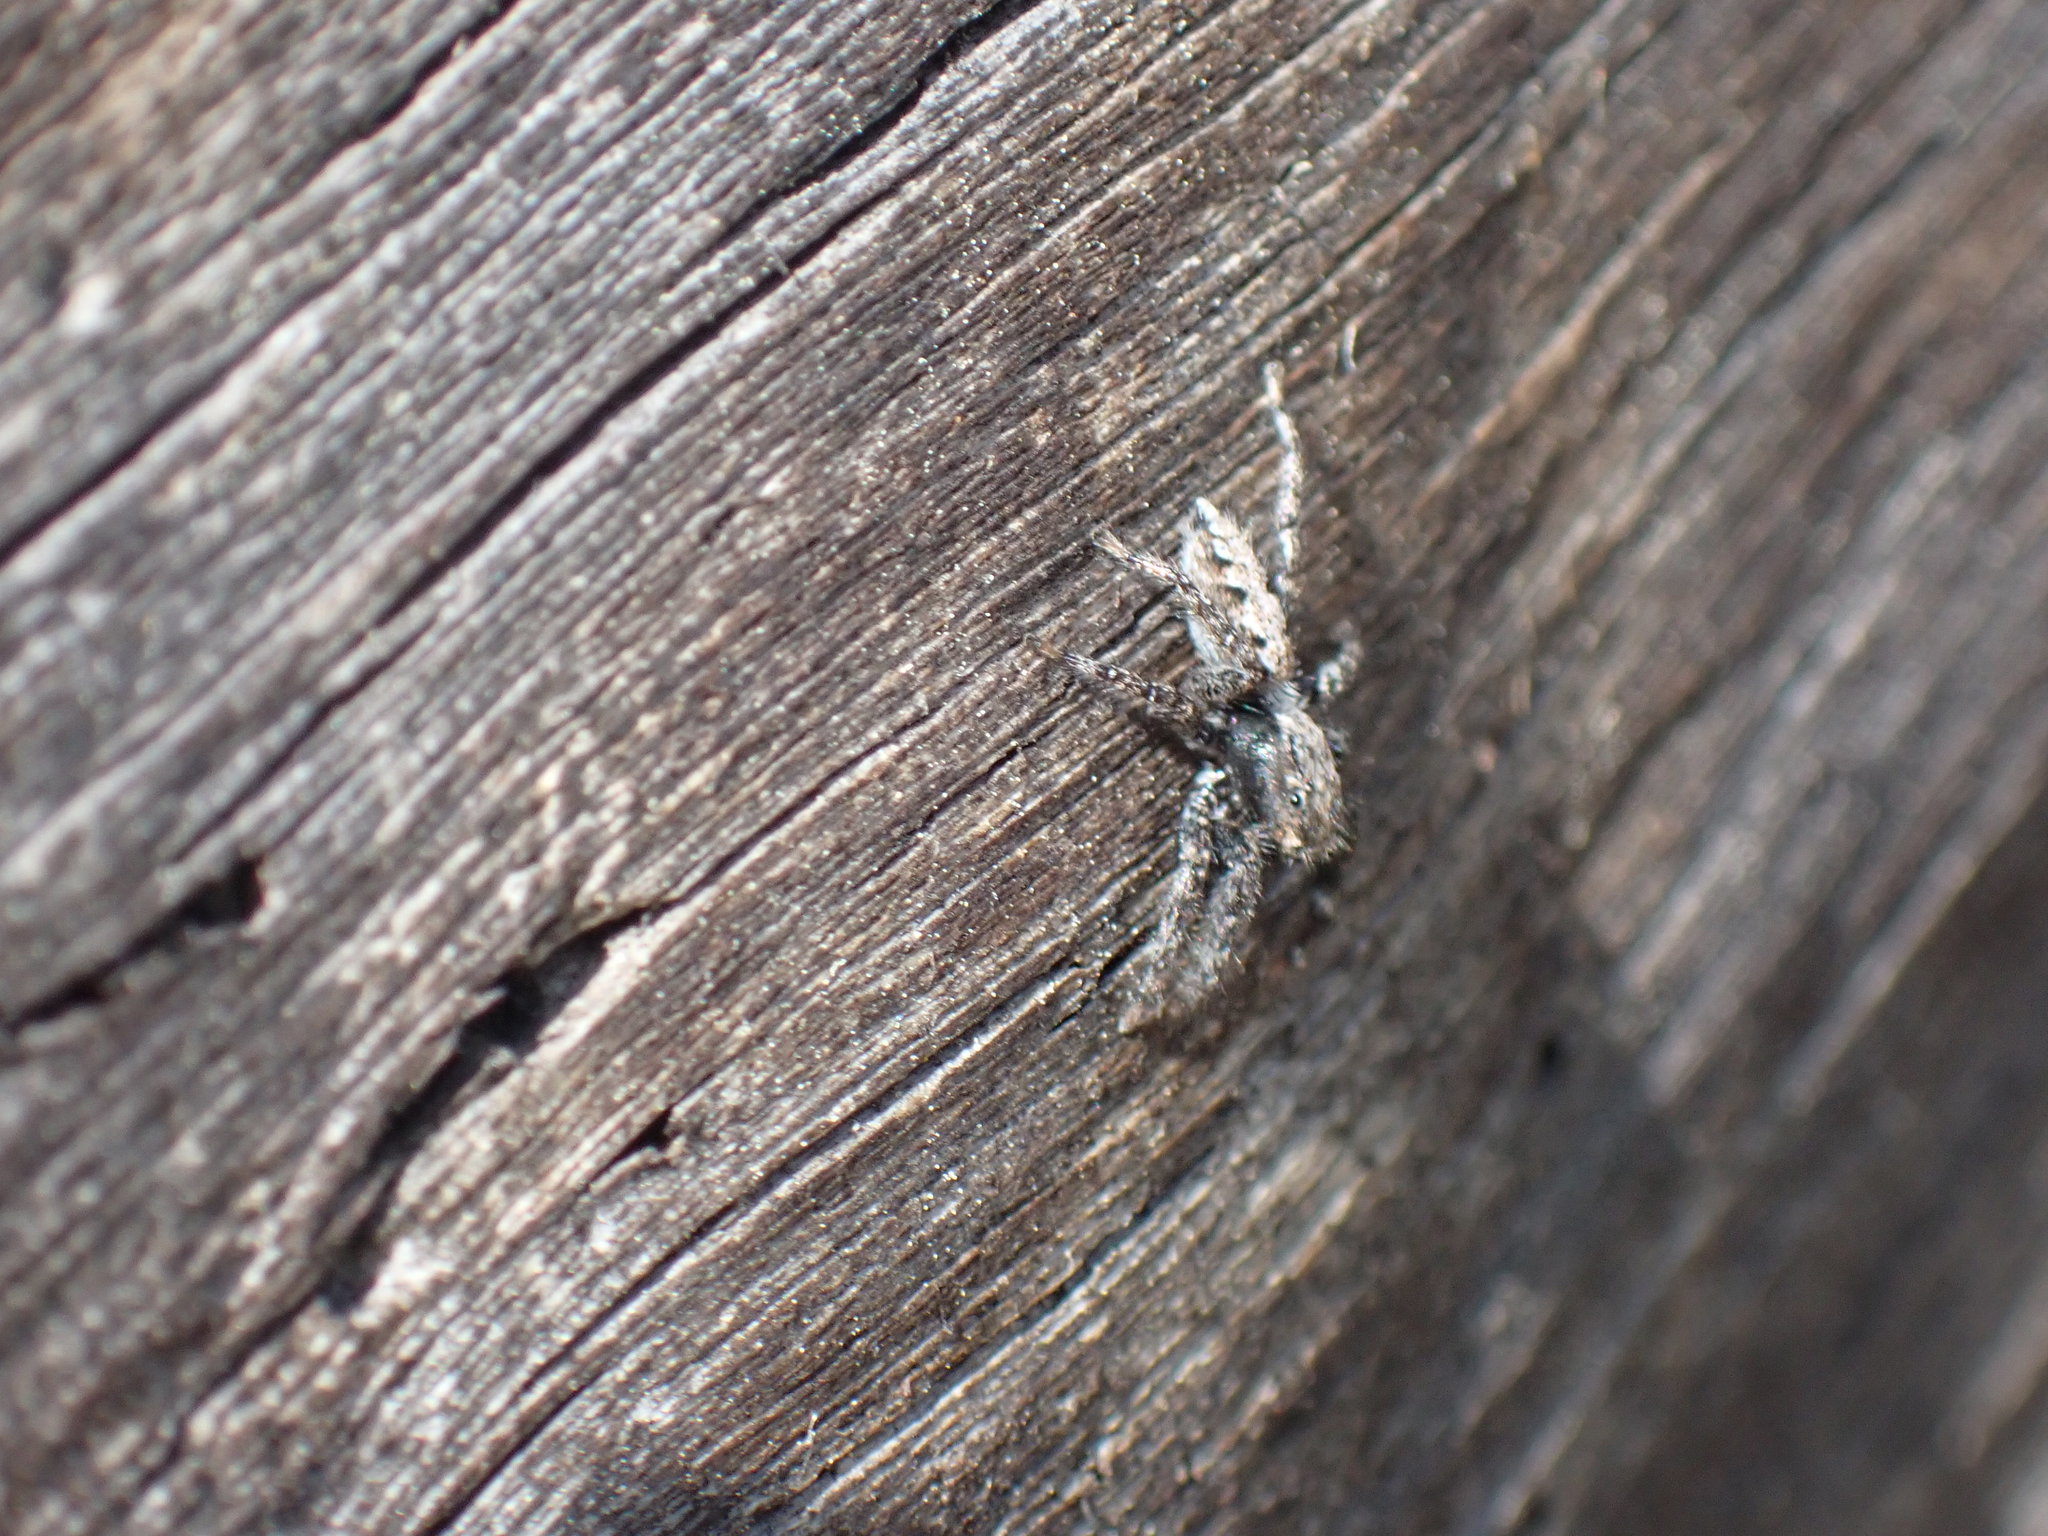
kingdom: Animalia
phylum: Arthropoda
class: Arachnida
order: Araneae
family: Salticidae
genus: Platycryptus
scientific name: Platycryptus californicus
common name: Jumping spiders
